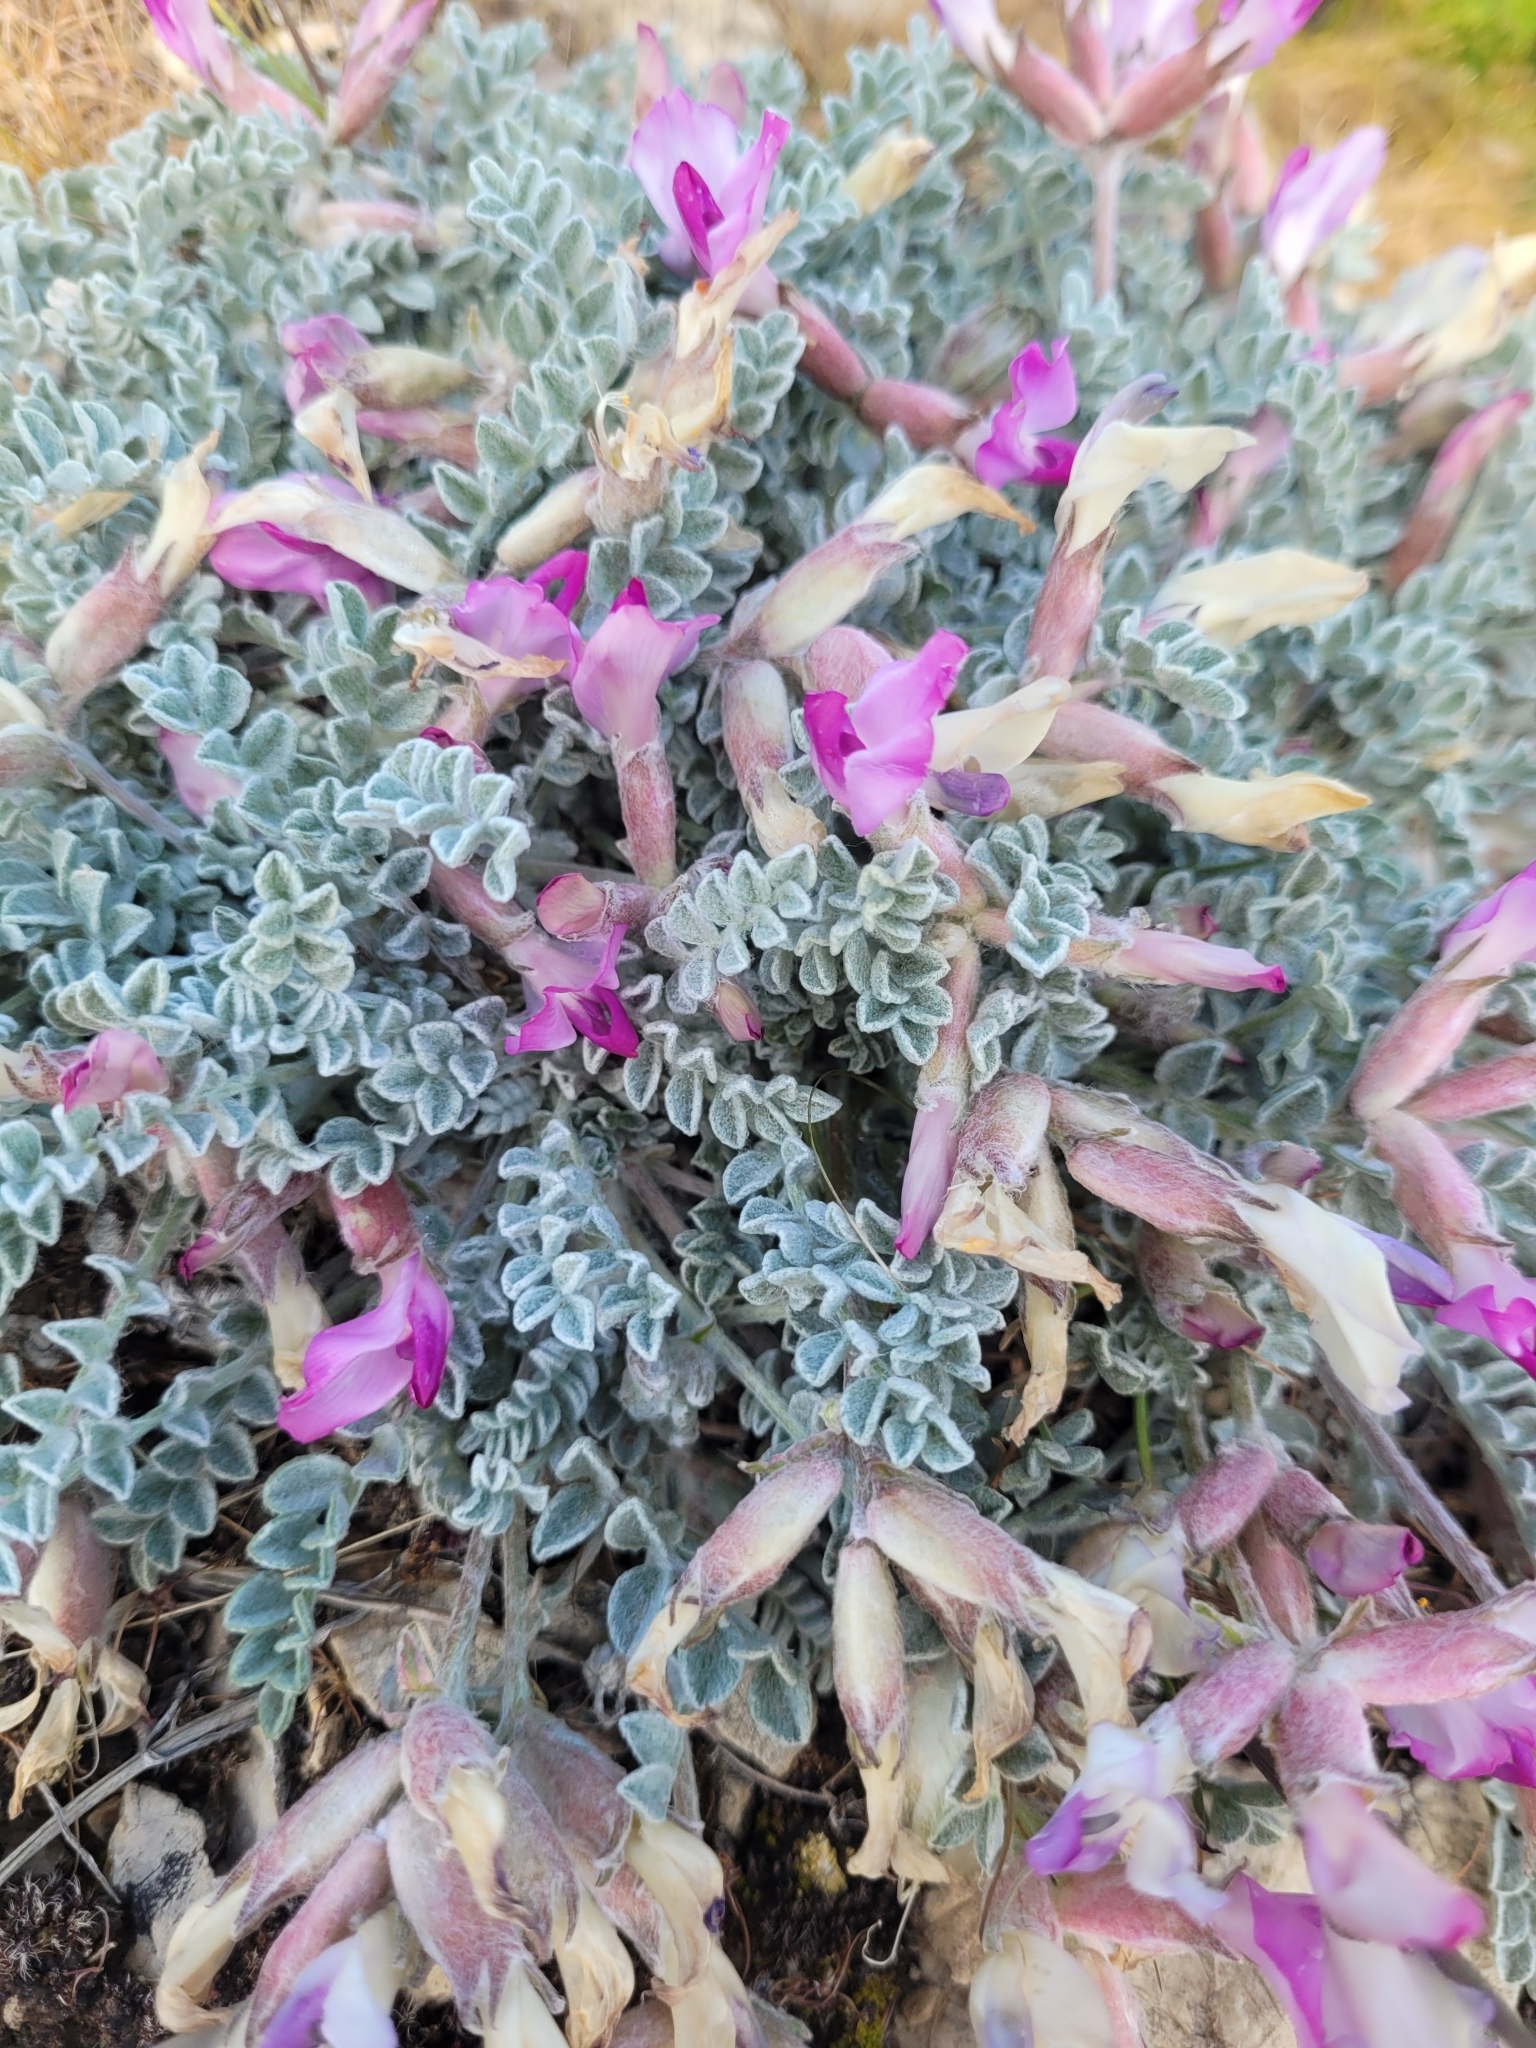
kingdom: Plantae
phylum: Tracheophyta
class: Magnoliopsida
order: Fabales
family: Fabaceae
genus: Astragalus
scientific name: Astragalus utahensis
